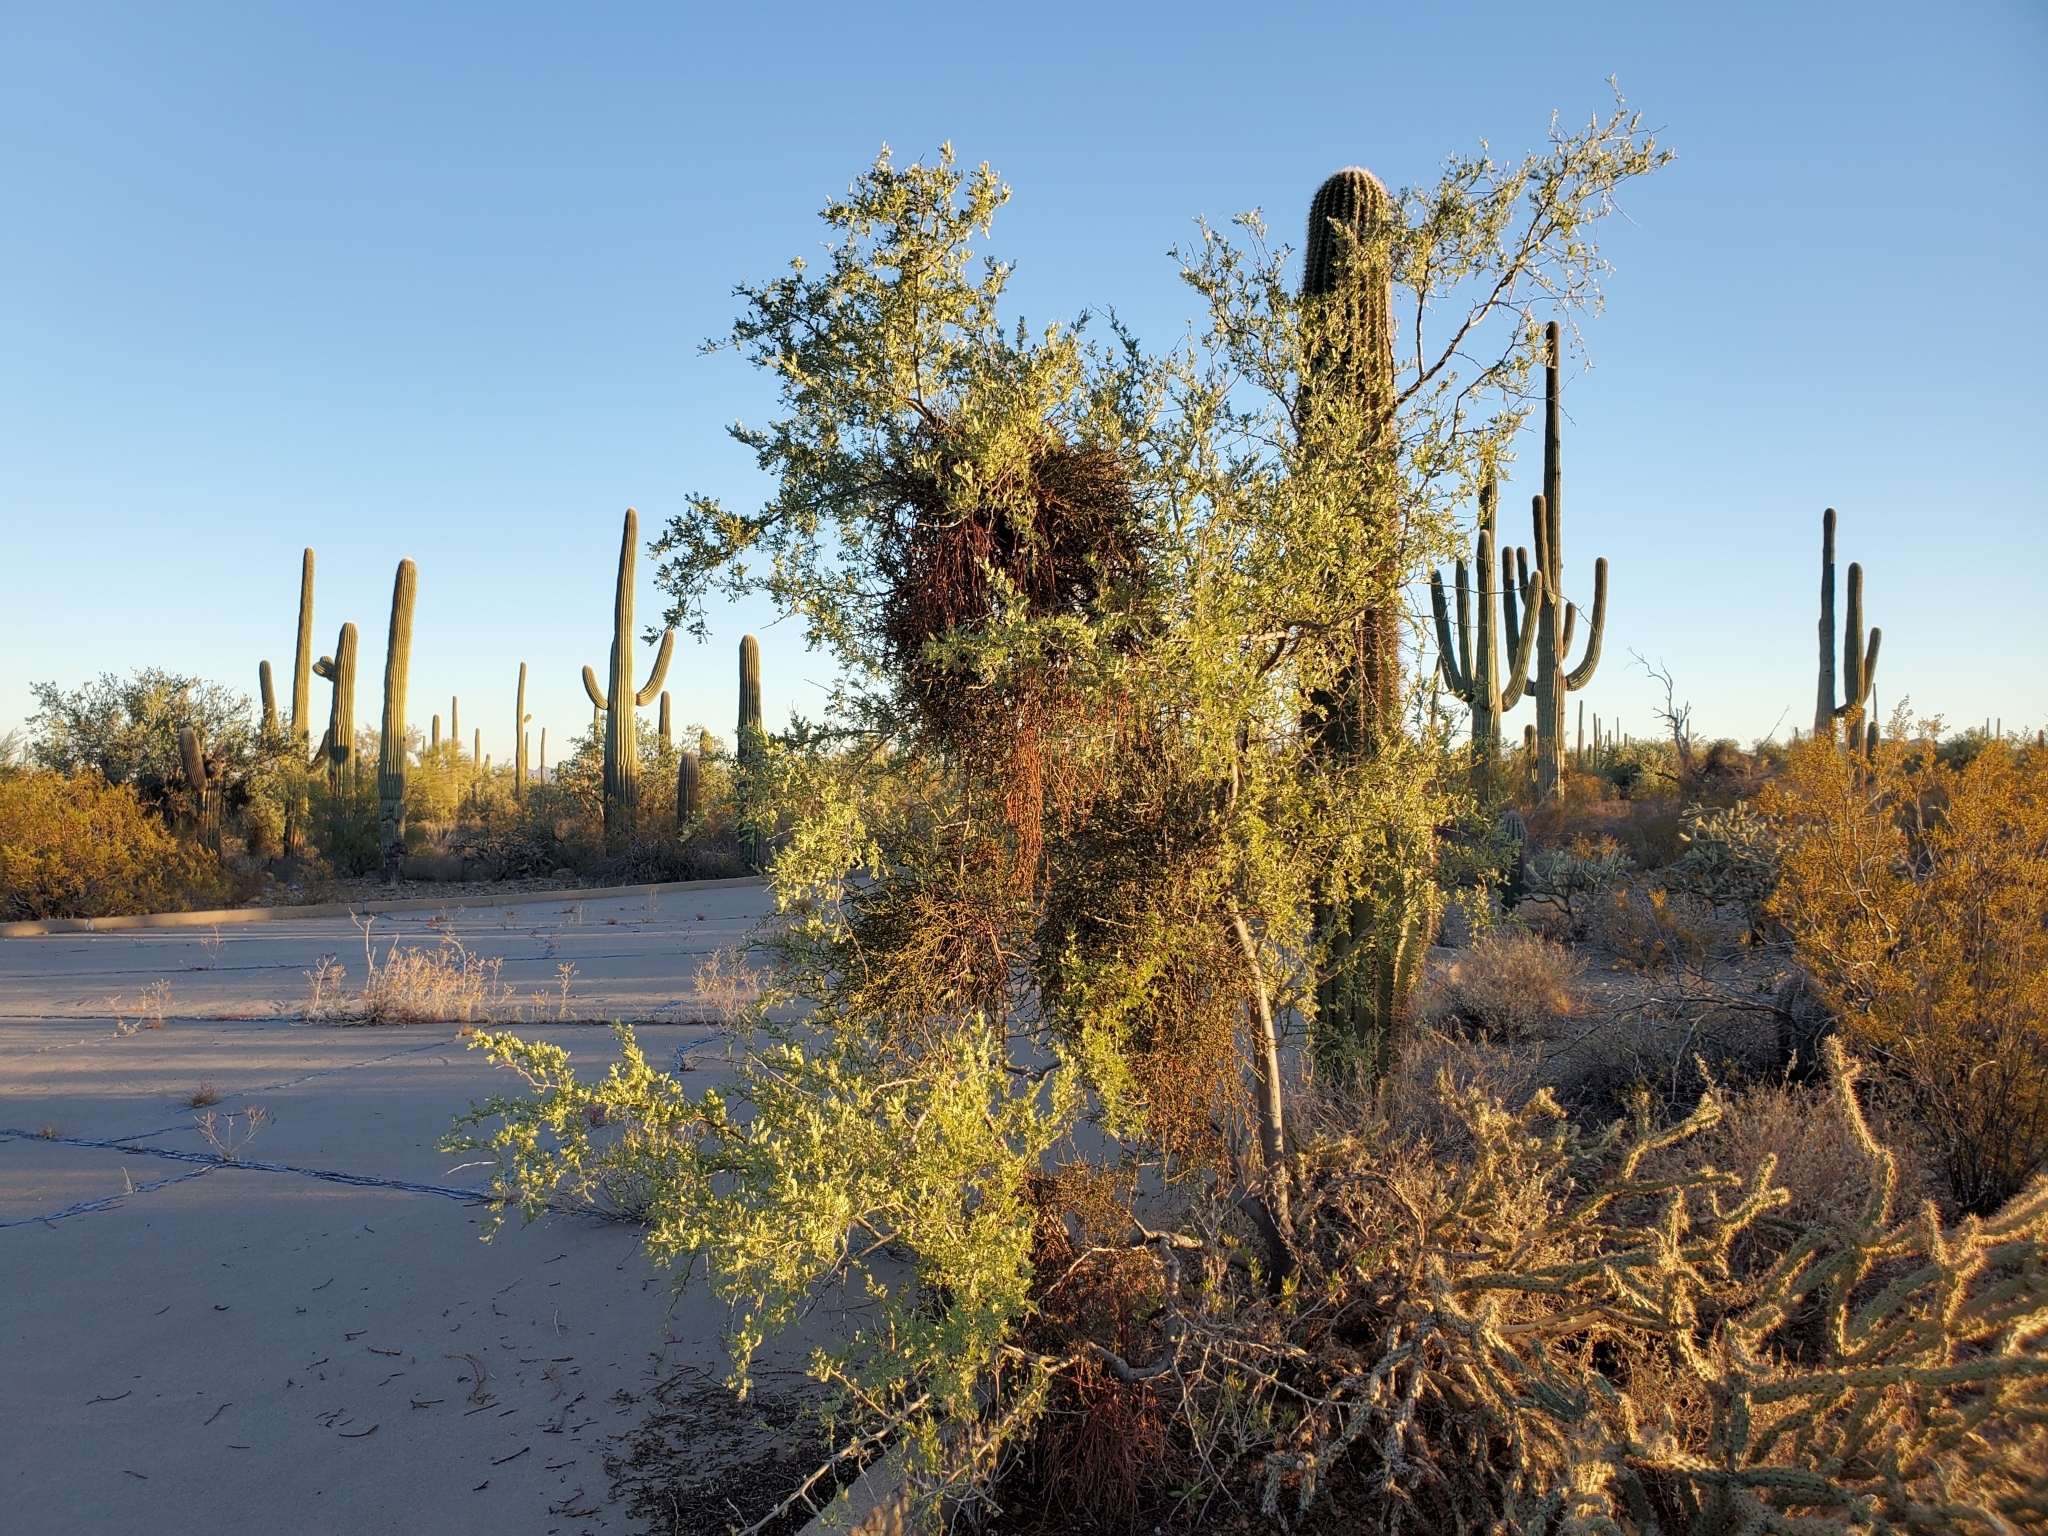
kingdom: Plantae
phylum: Tracheophyta
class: Magnoliopsida
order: Santalales
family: Viscaceae
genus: Phoradendron
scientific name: Phoradendron californicum
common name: Acacia mistletoe
